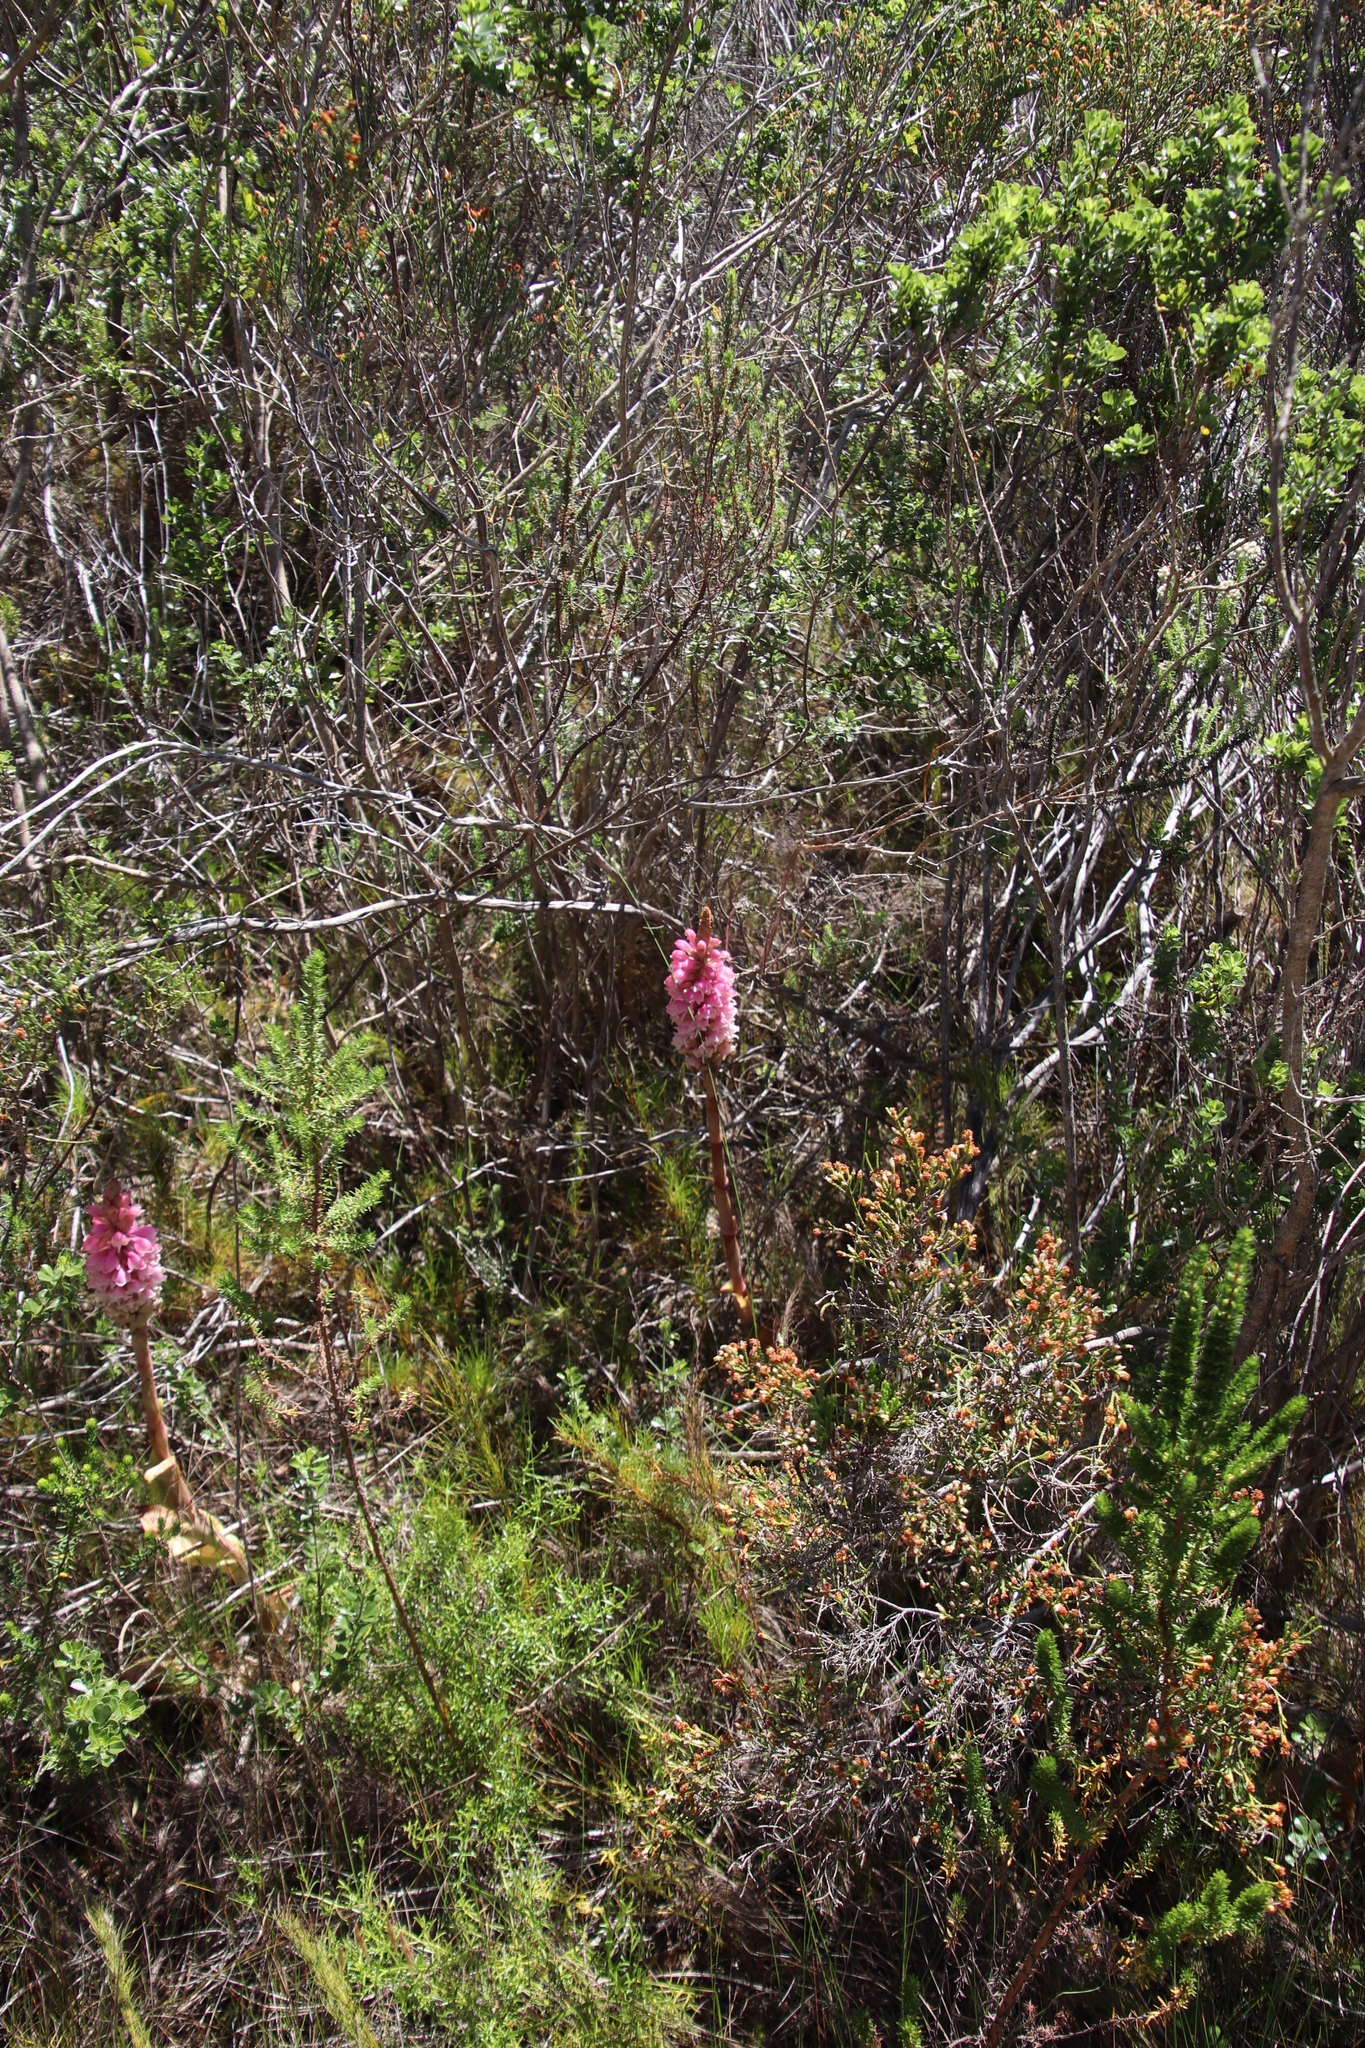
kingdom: Plantae
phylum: Tracheophyta
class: Liliopsida
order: Asparagales
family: Orchidaceae
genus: Satyrium
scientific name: Satyrium carneum
